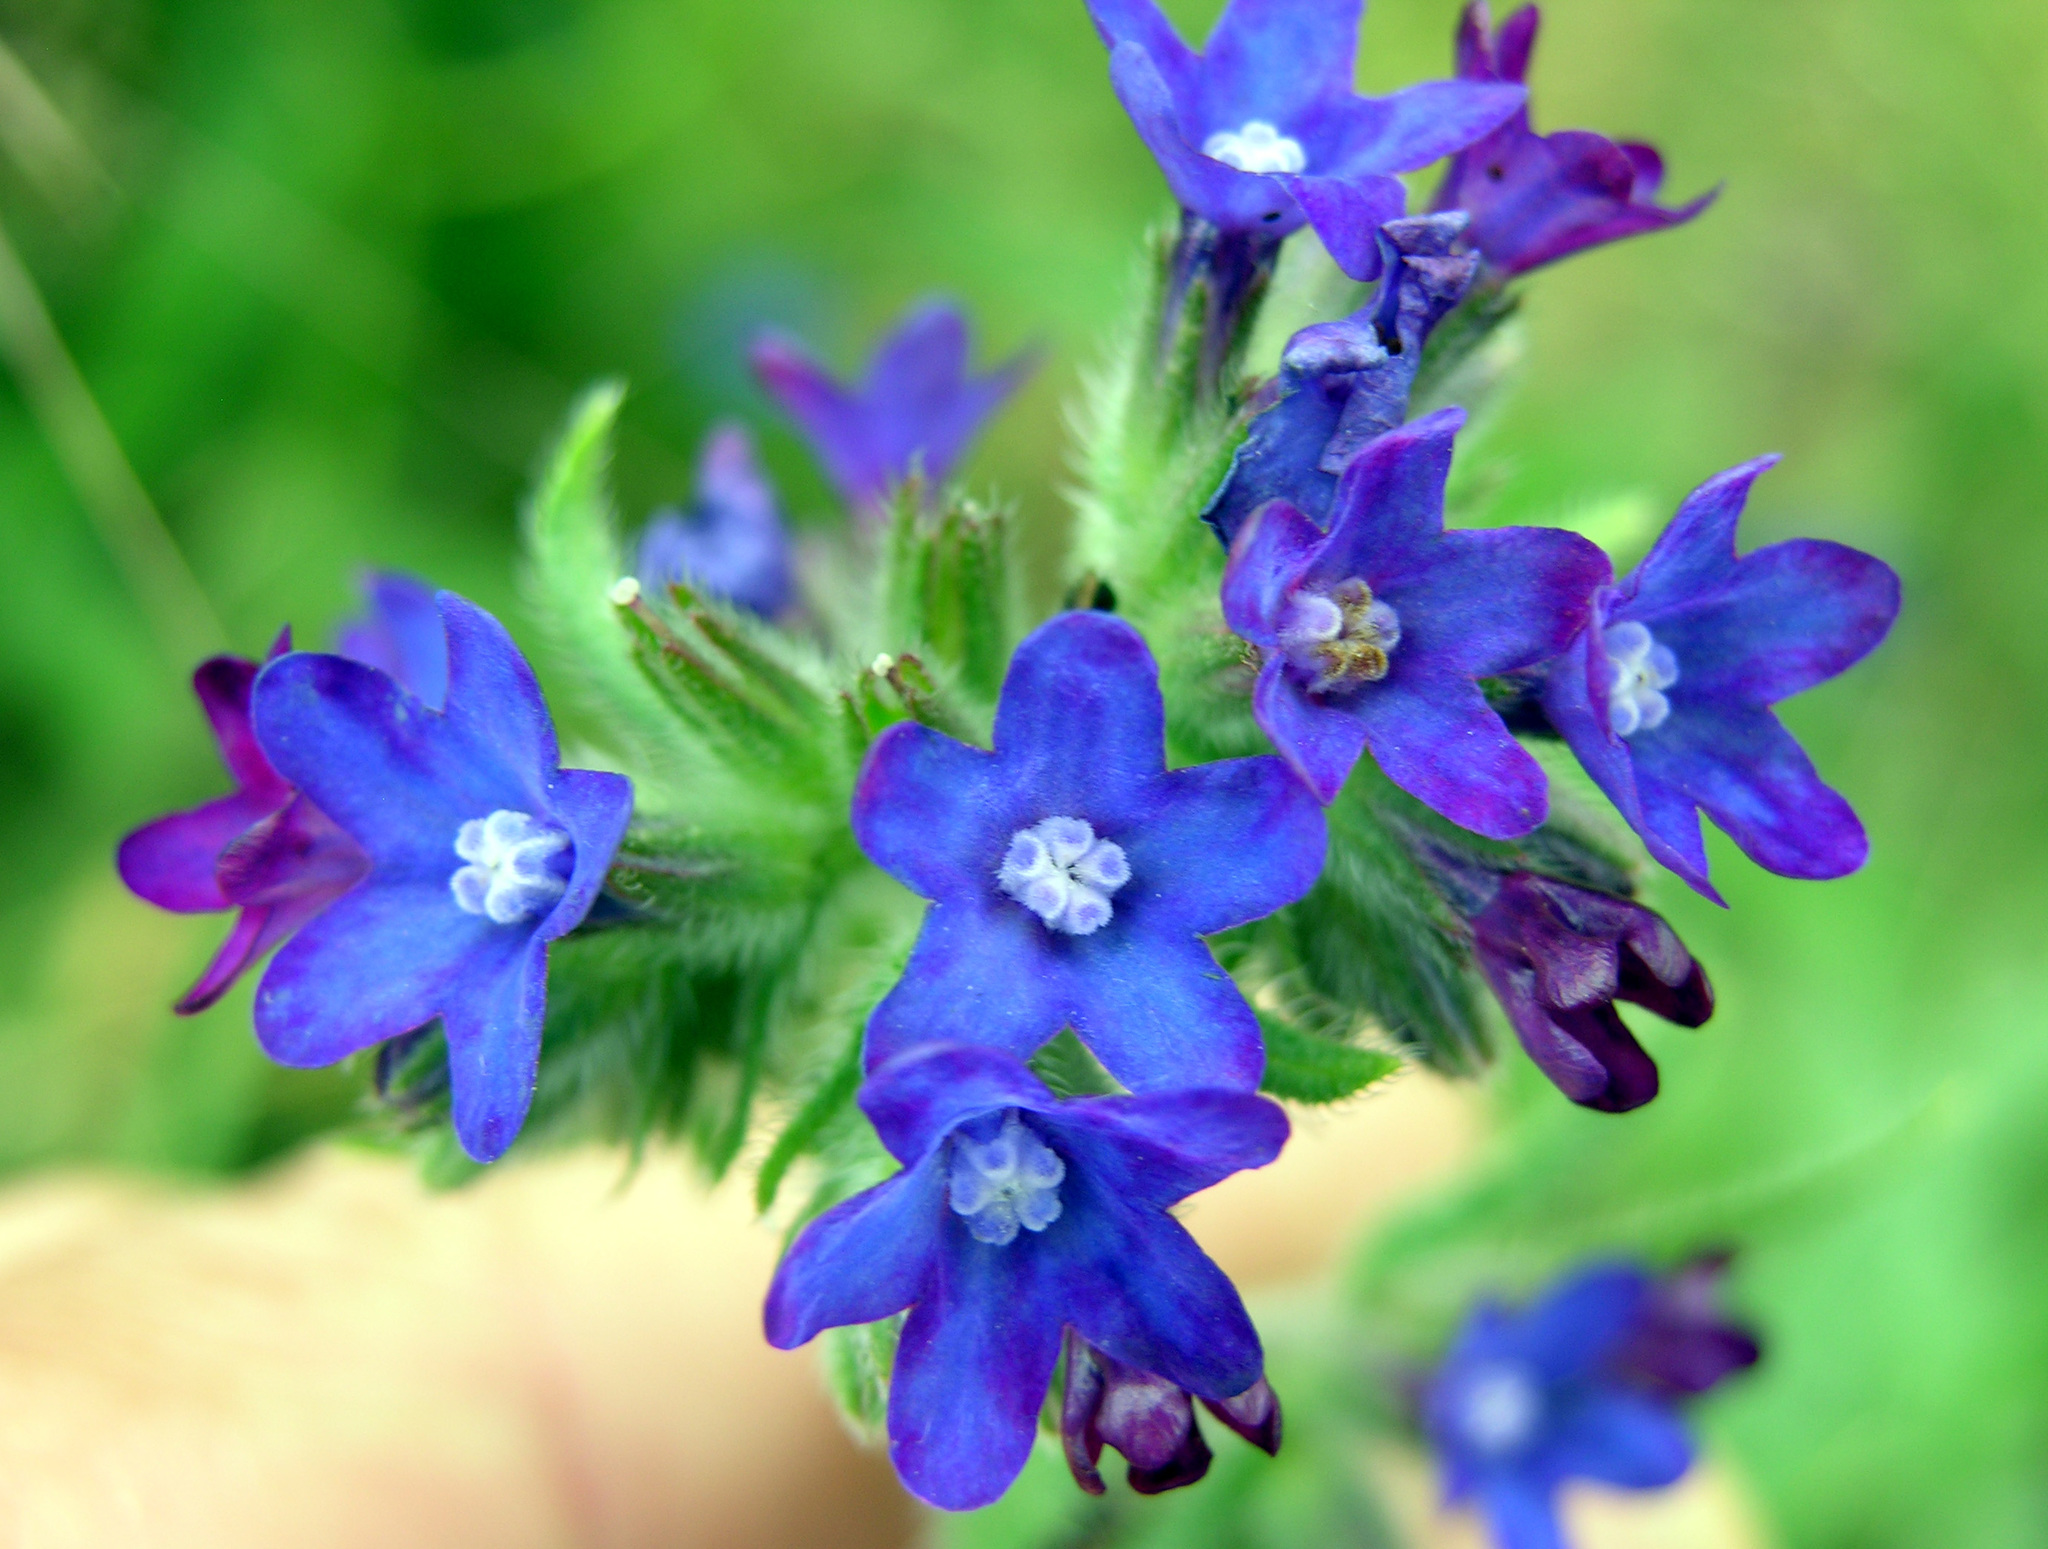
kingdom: Plantae
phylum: Tracheophyta
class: Magnoliopsida
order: Boraginales
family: Boraginaceae
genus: Anchusa
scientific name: Anchusa officinalis
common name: Alkanet
